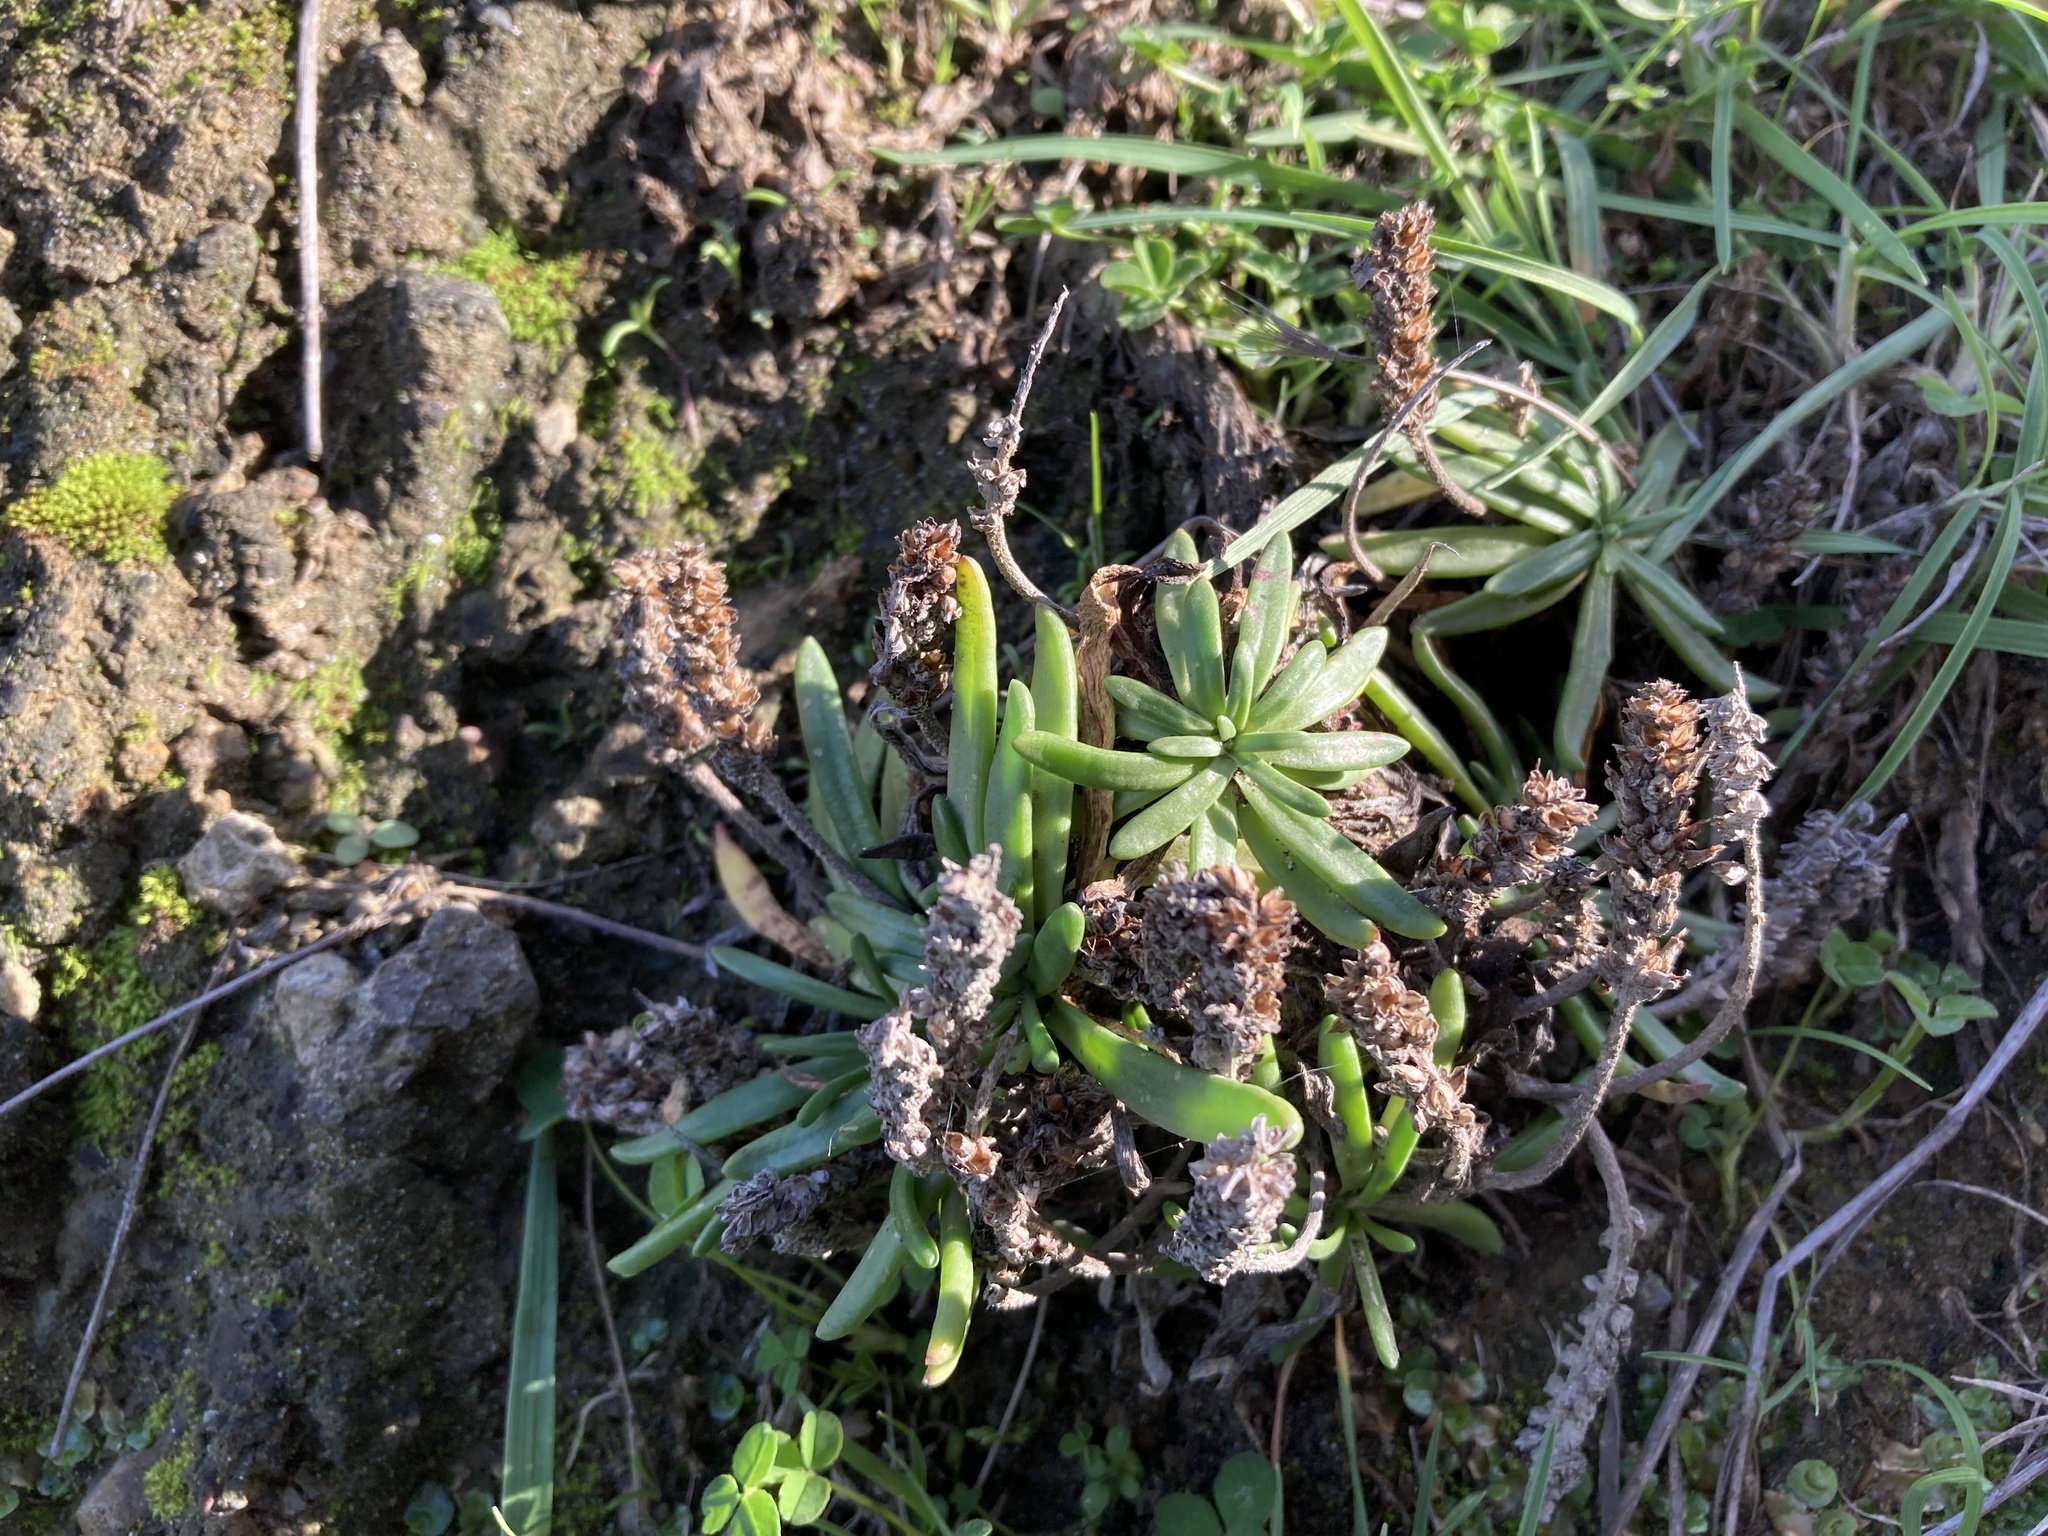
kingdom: Plantae
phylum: Tracheophyta
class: Magnoliopsida
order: Lamiales
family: Plantaginaceae
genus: Plantago
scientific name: Plantago maritima
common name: Sea plantain
